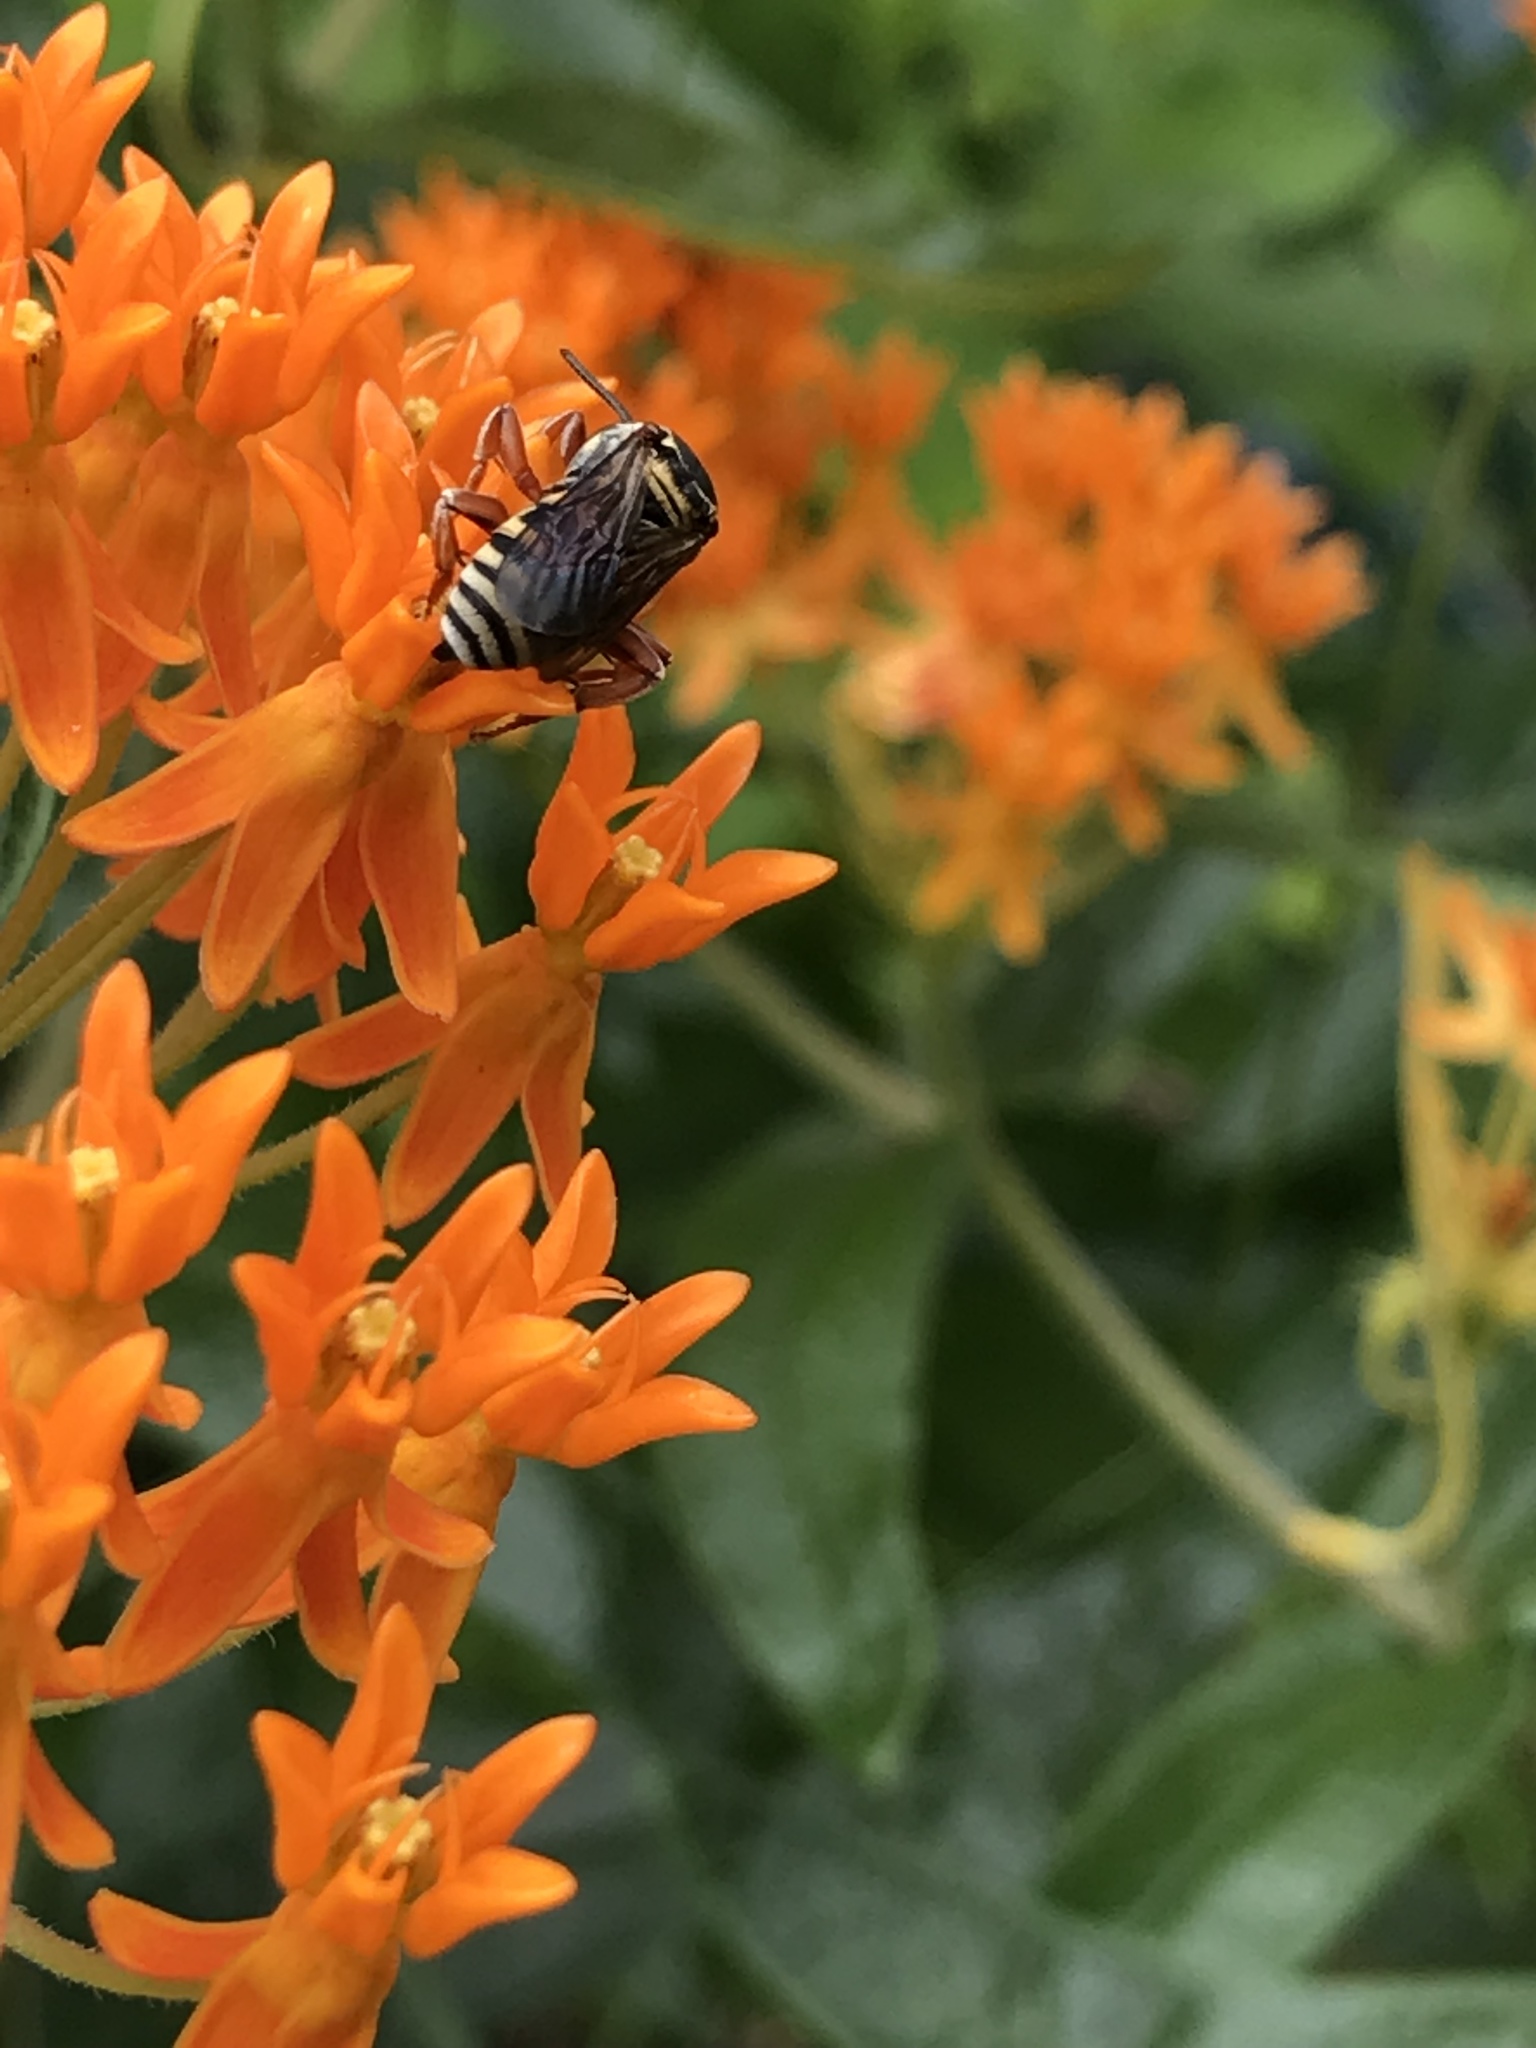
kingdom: Animalia
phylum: Arthropoda
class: Insecta
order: Hymenoptera
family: Apidae
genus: Triepeolus
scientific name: Triepeolus lunatus
